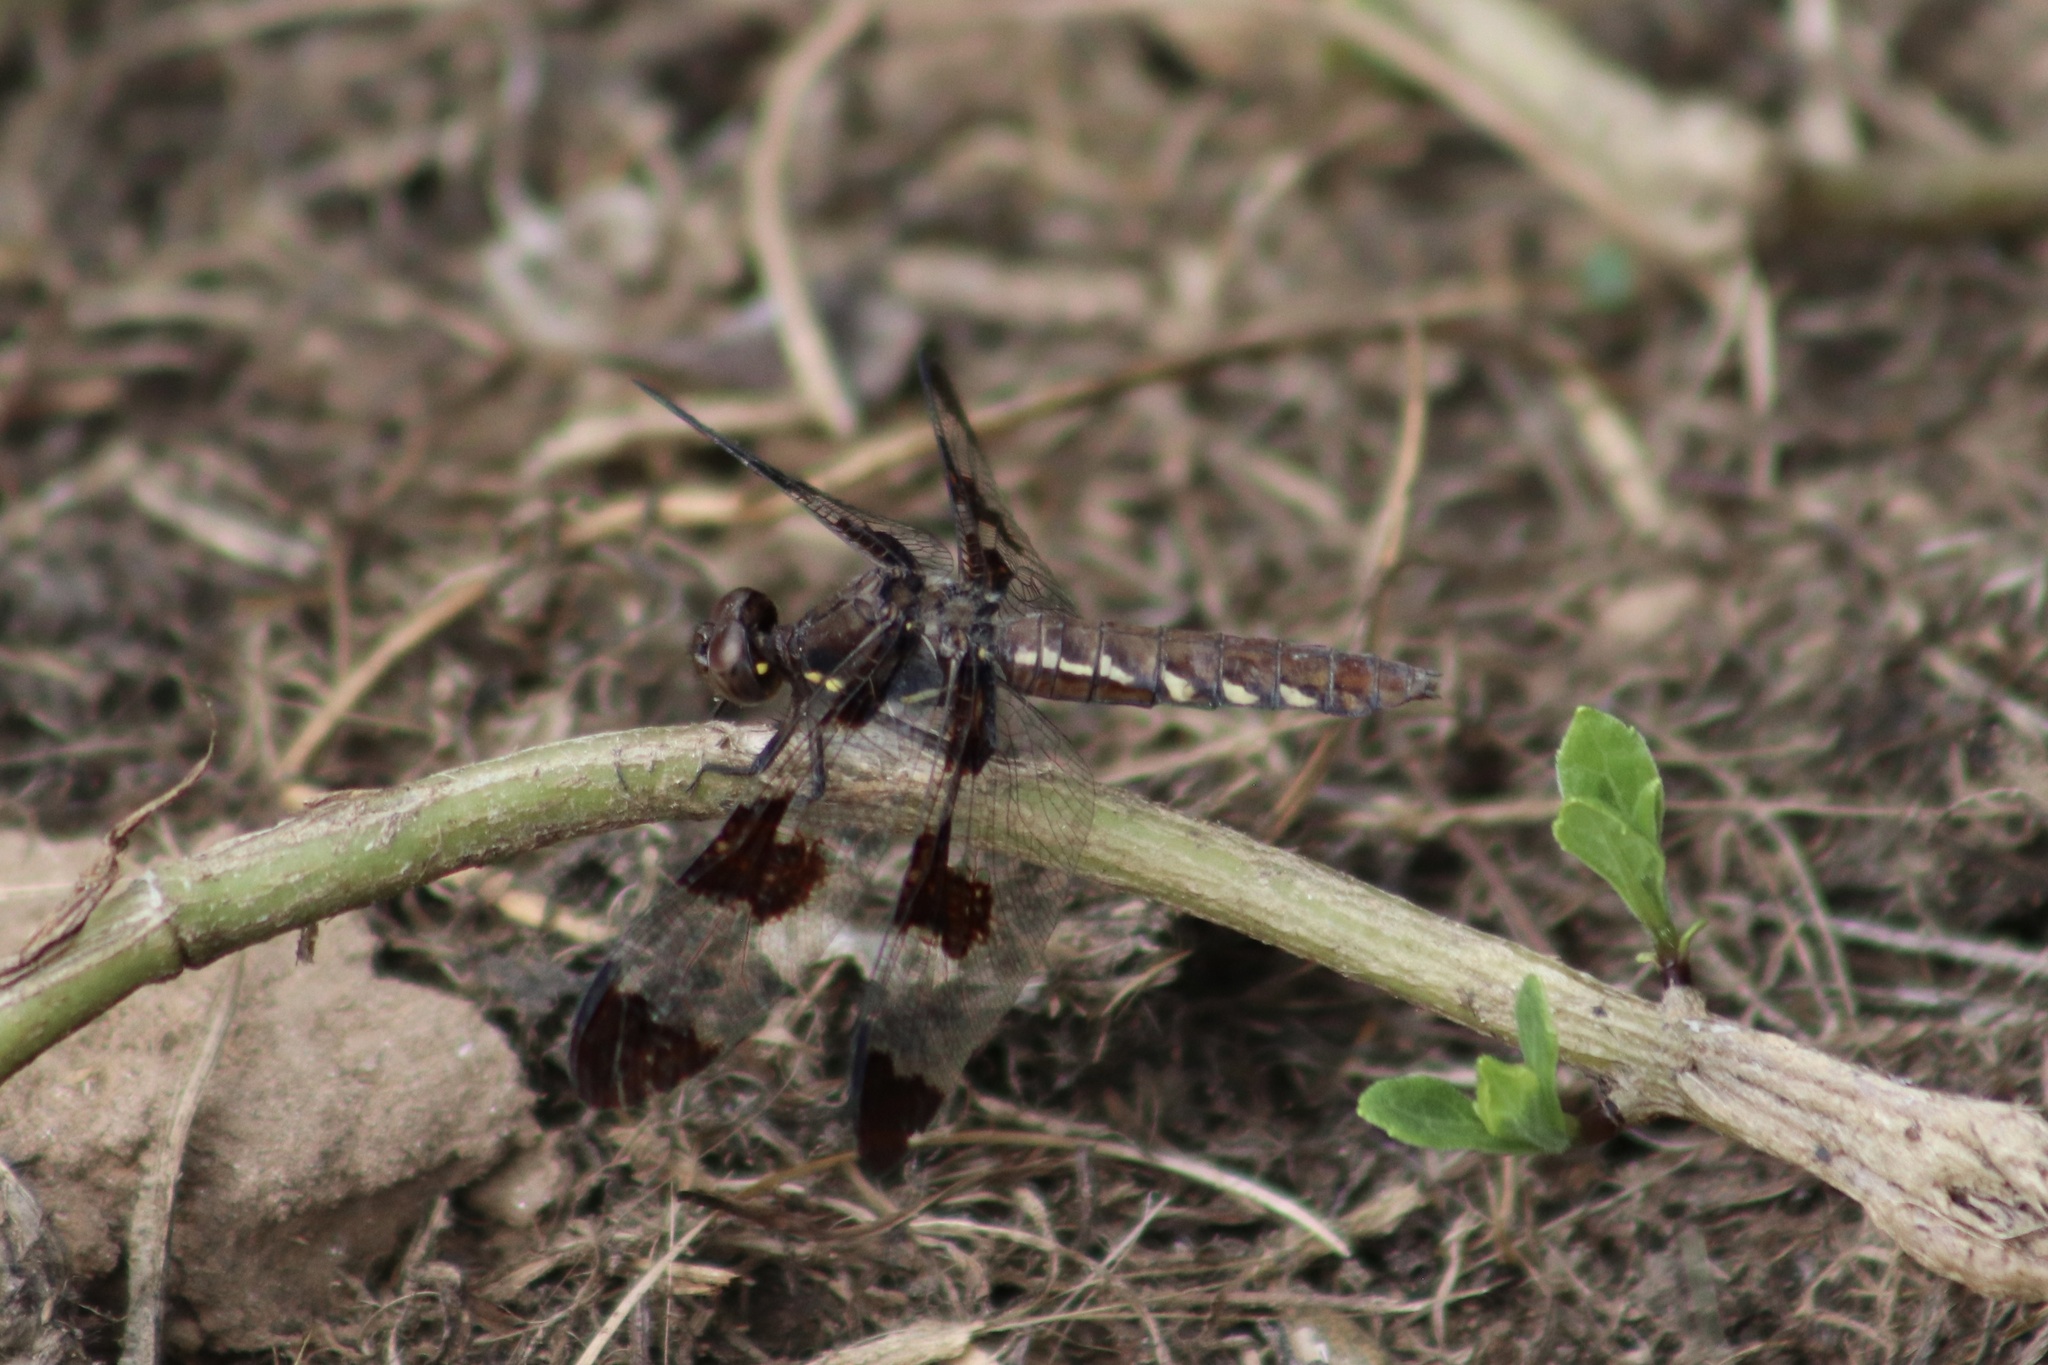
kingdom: Animalia
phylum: Arthropoda
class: Insecta
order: Odonata
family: Libellulidae
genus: Plathemis
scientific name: Plathemis lydia
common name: Common whitetail
